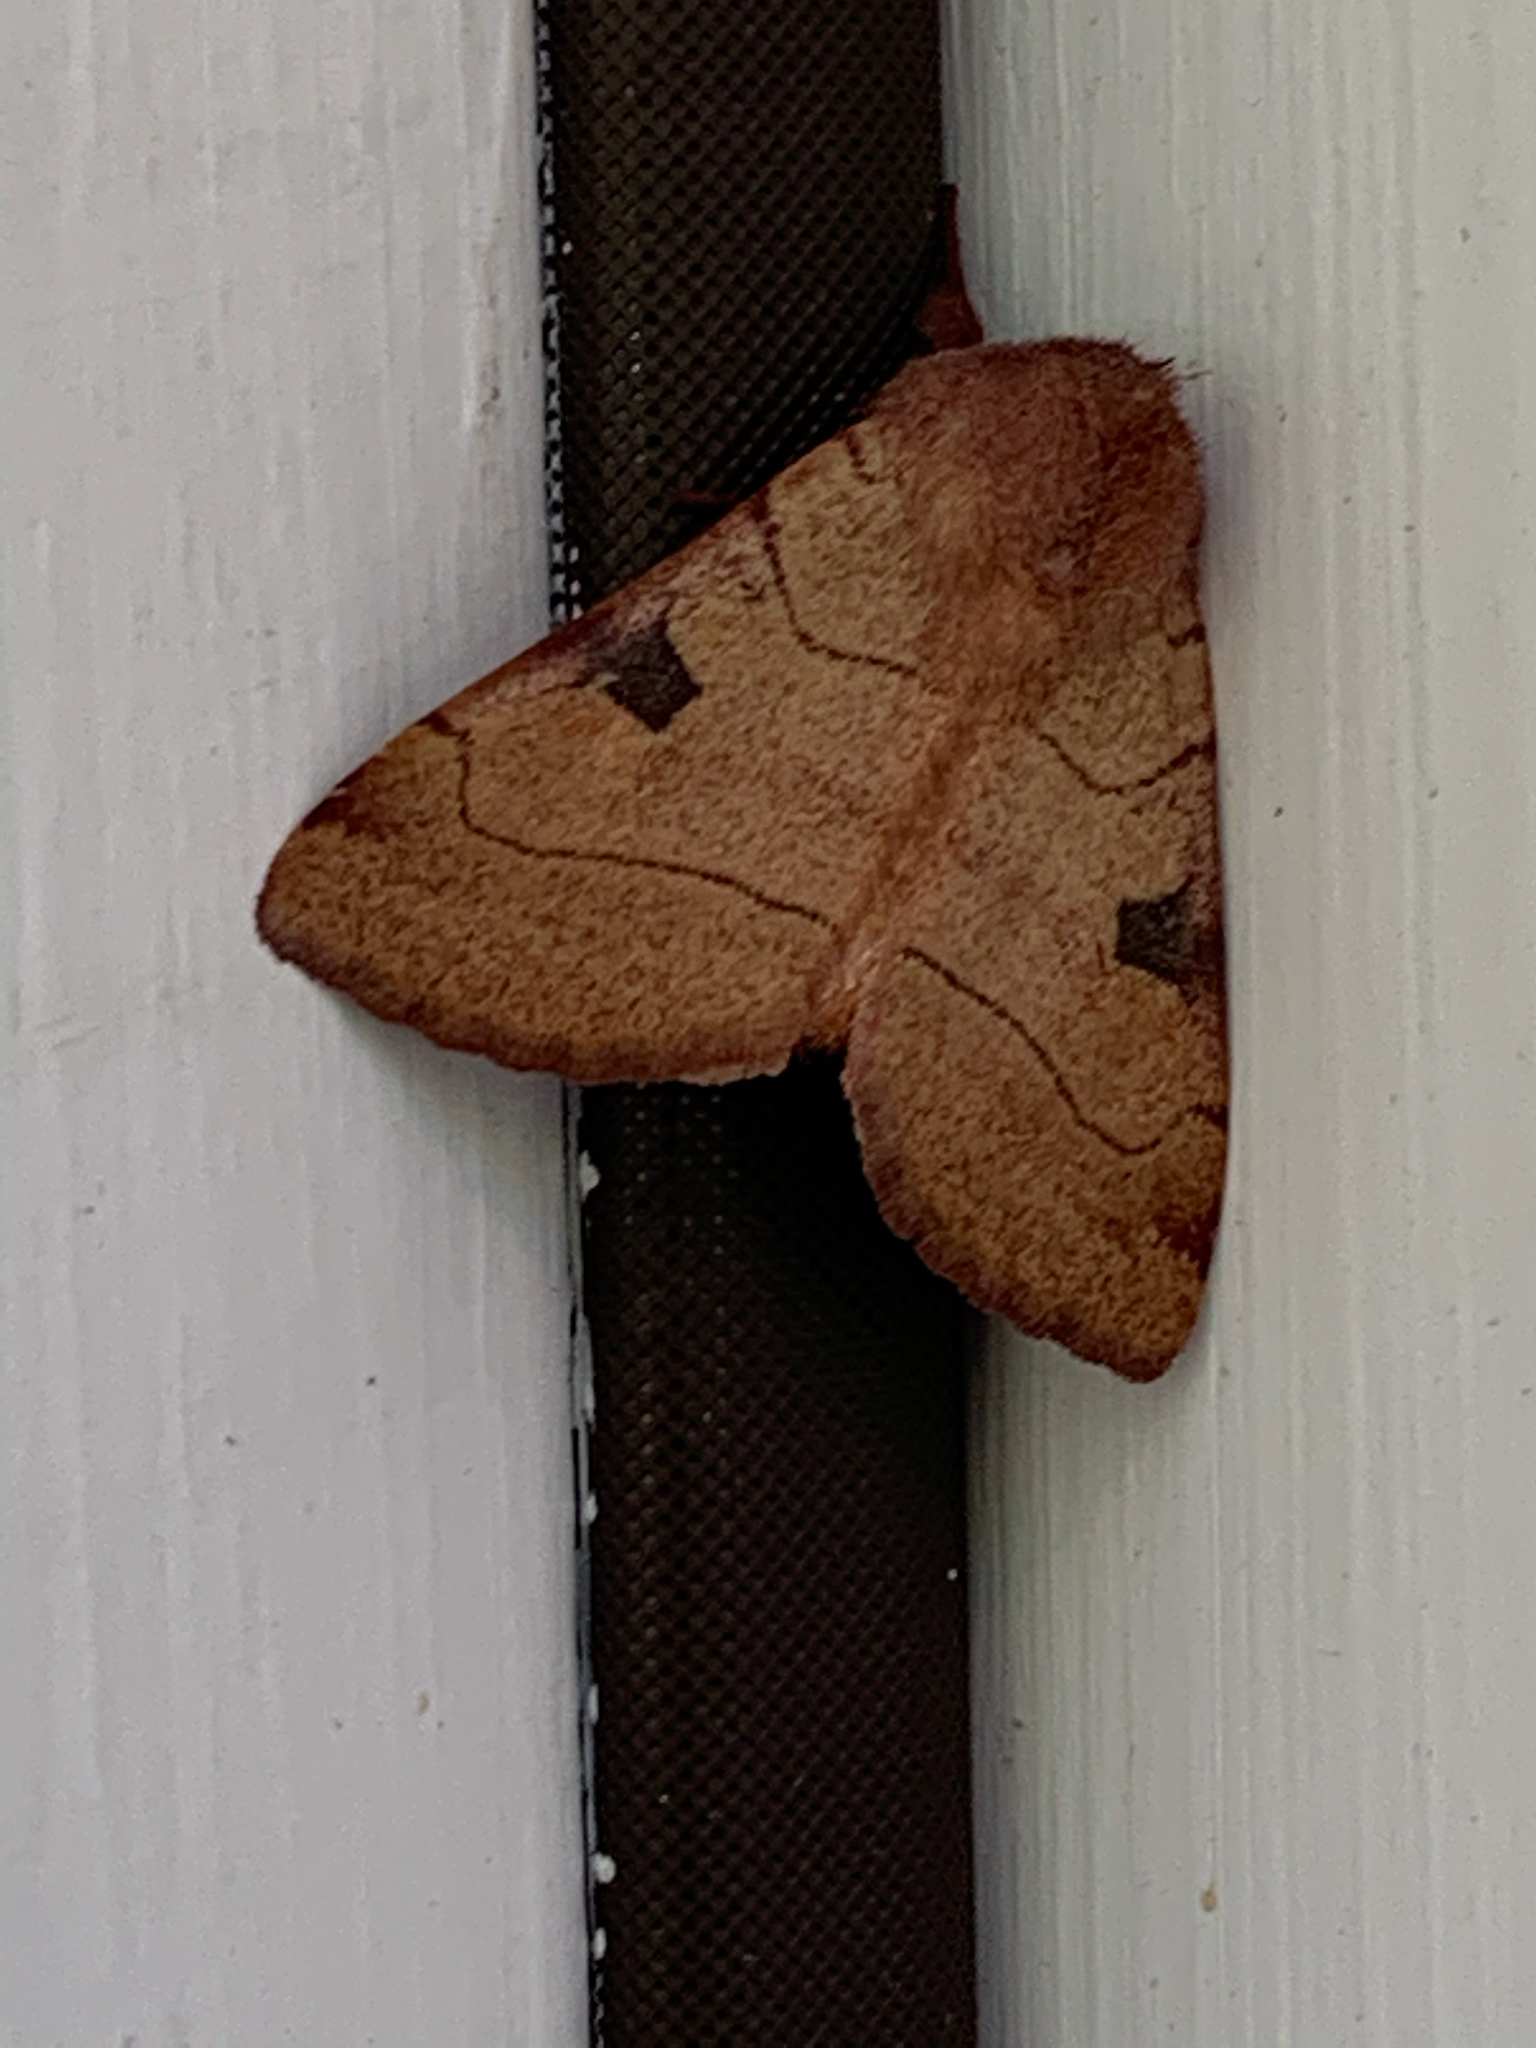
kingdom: Animalia
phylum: Arthropoda
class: Insecta
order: Lepidoptera
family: Noctuidae
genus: Choephora
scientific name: Choephora fungorum
